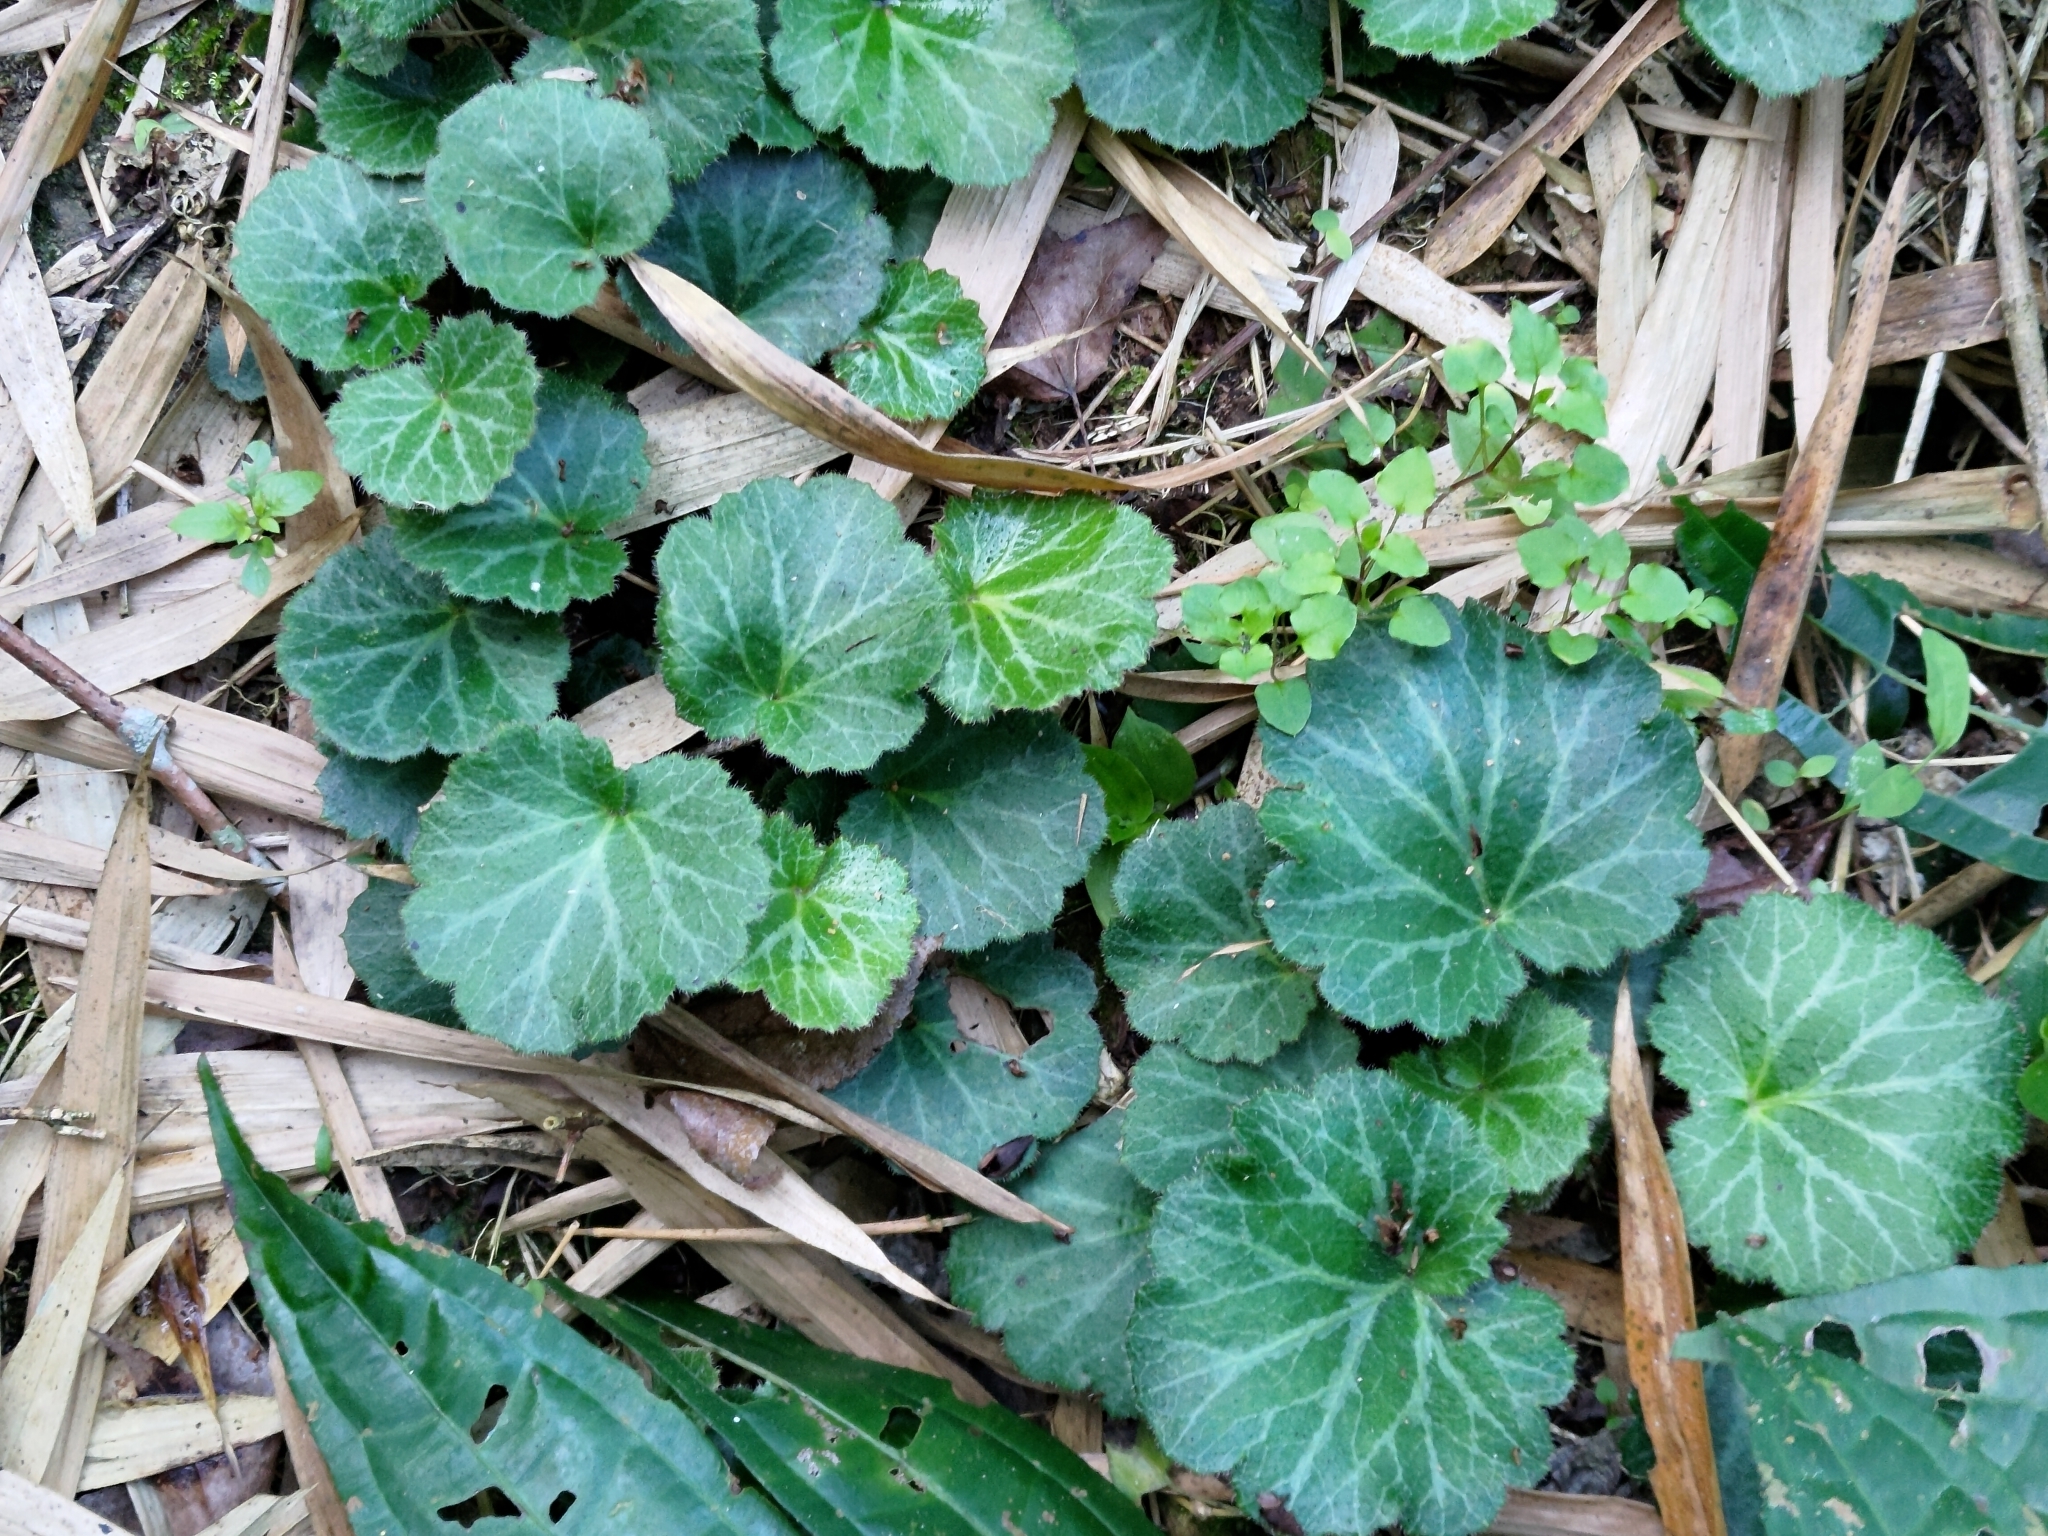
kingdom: Plantae
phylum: Tracheophyta
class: Magnoliopsida
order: Saxifragales
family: Saxifragaceae
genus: Saxifraga
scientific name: Saxifraga stolonifera
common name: Creeping saxifrage
